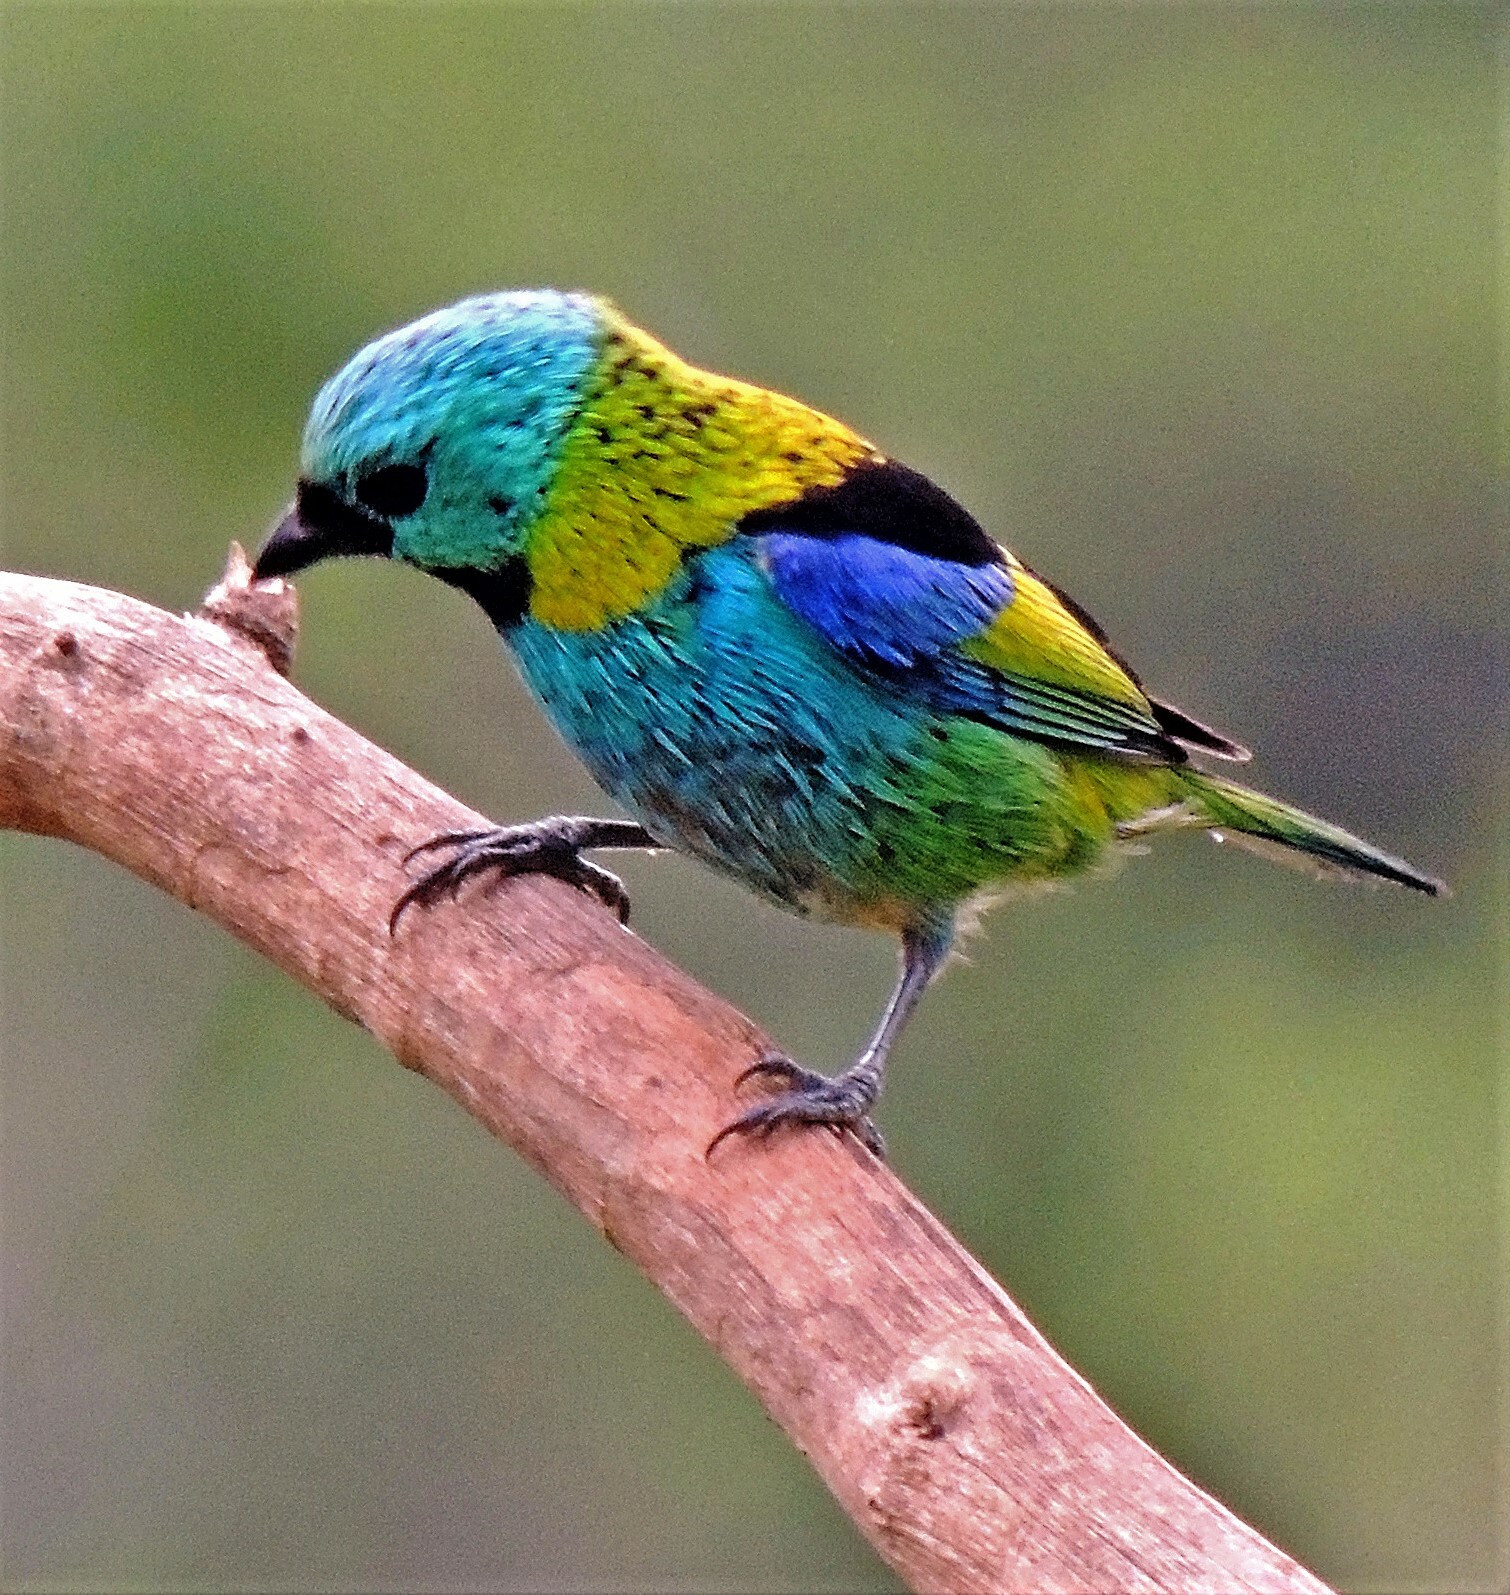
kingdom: Animalia
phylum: Chordata
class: Aves
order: Passeriformes
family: Thraupidae
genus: Tangara
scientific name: Tangara seledon
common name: Green-headed tanager
